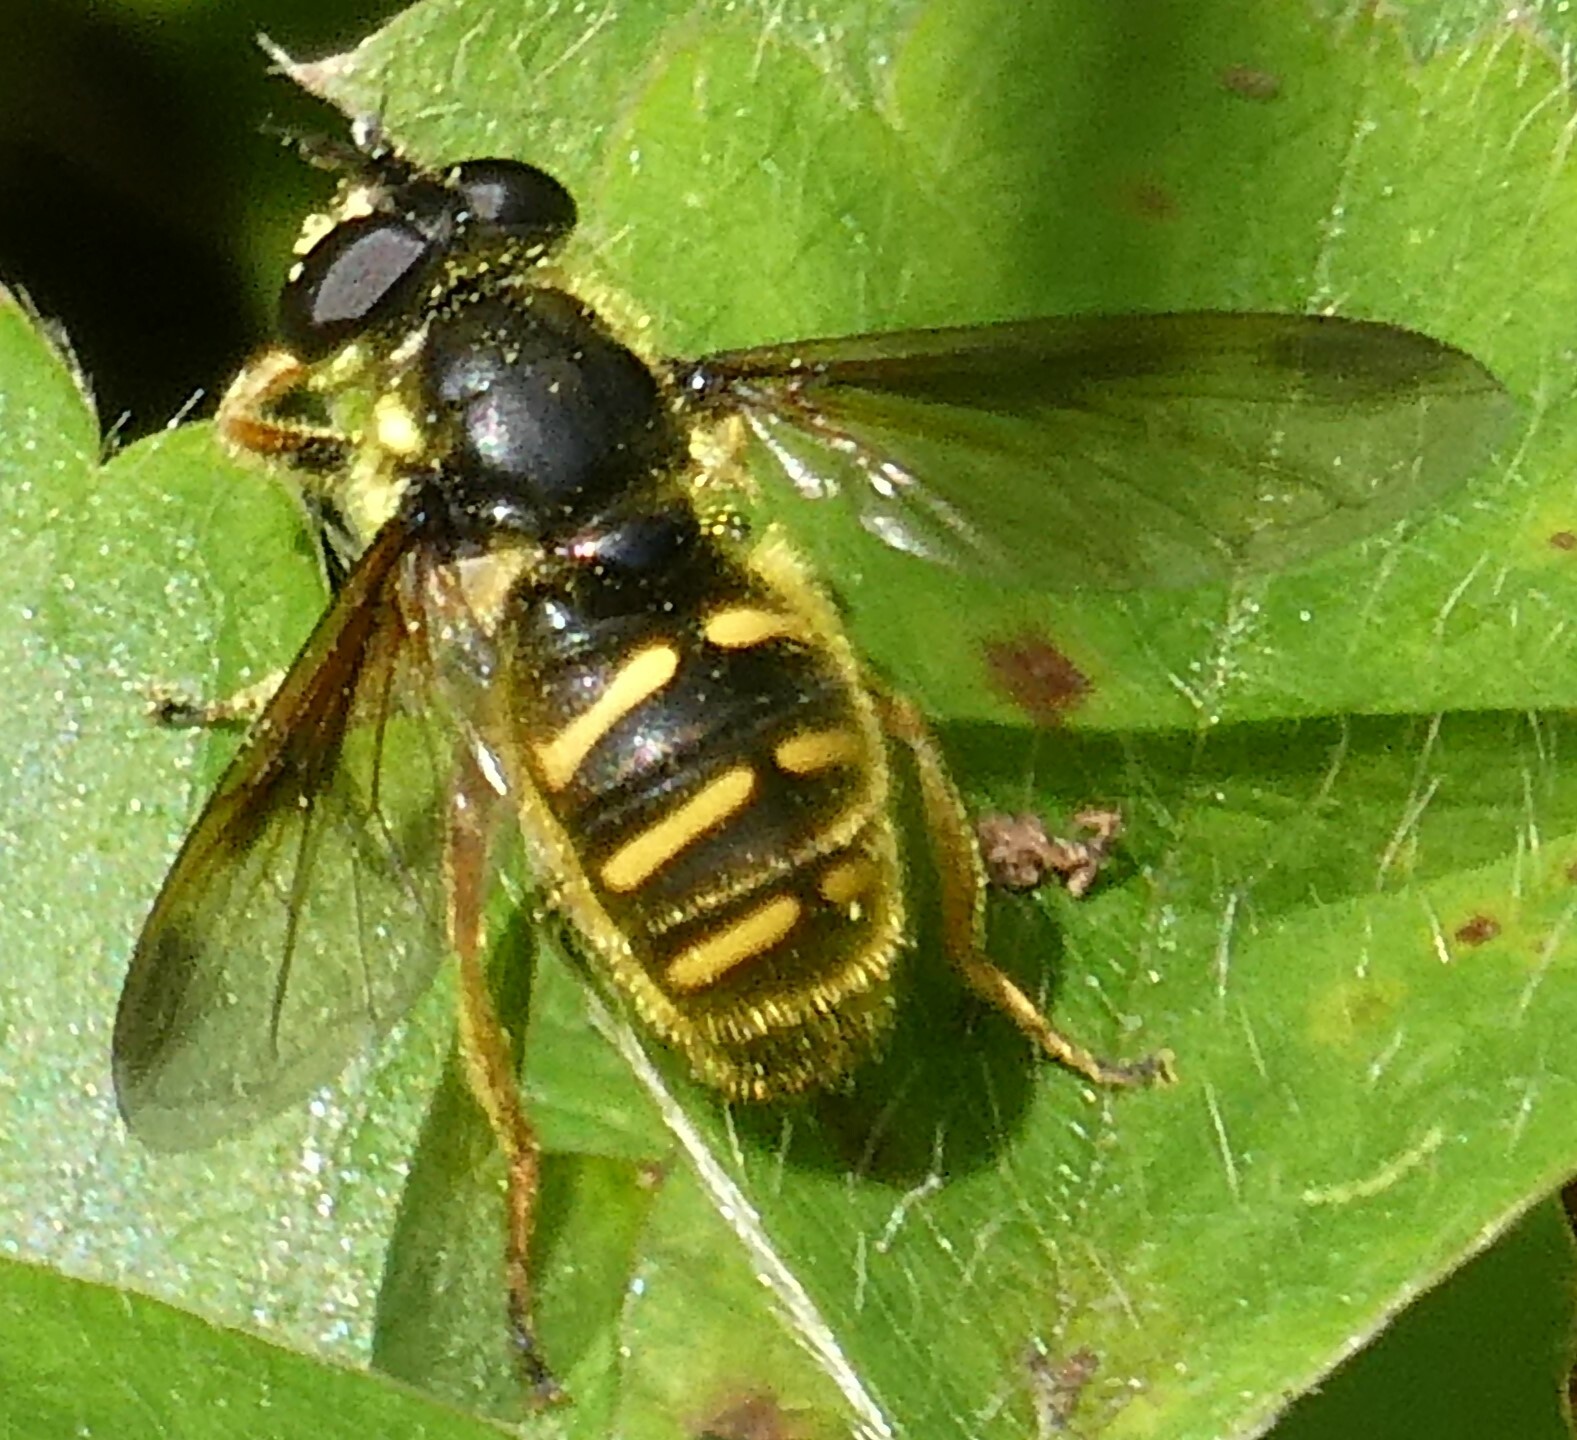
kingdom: Animalia
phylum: Arthropoda
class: Insecta
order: Diptera
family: Syrphidae
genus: Sericomyia
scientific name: Sericomyia chrysotoxoides
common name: Oblique-banded pond fly
